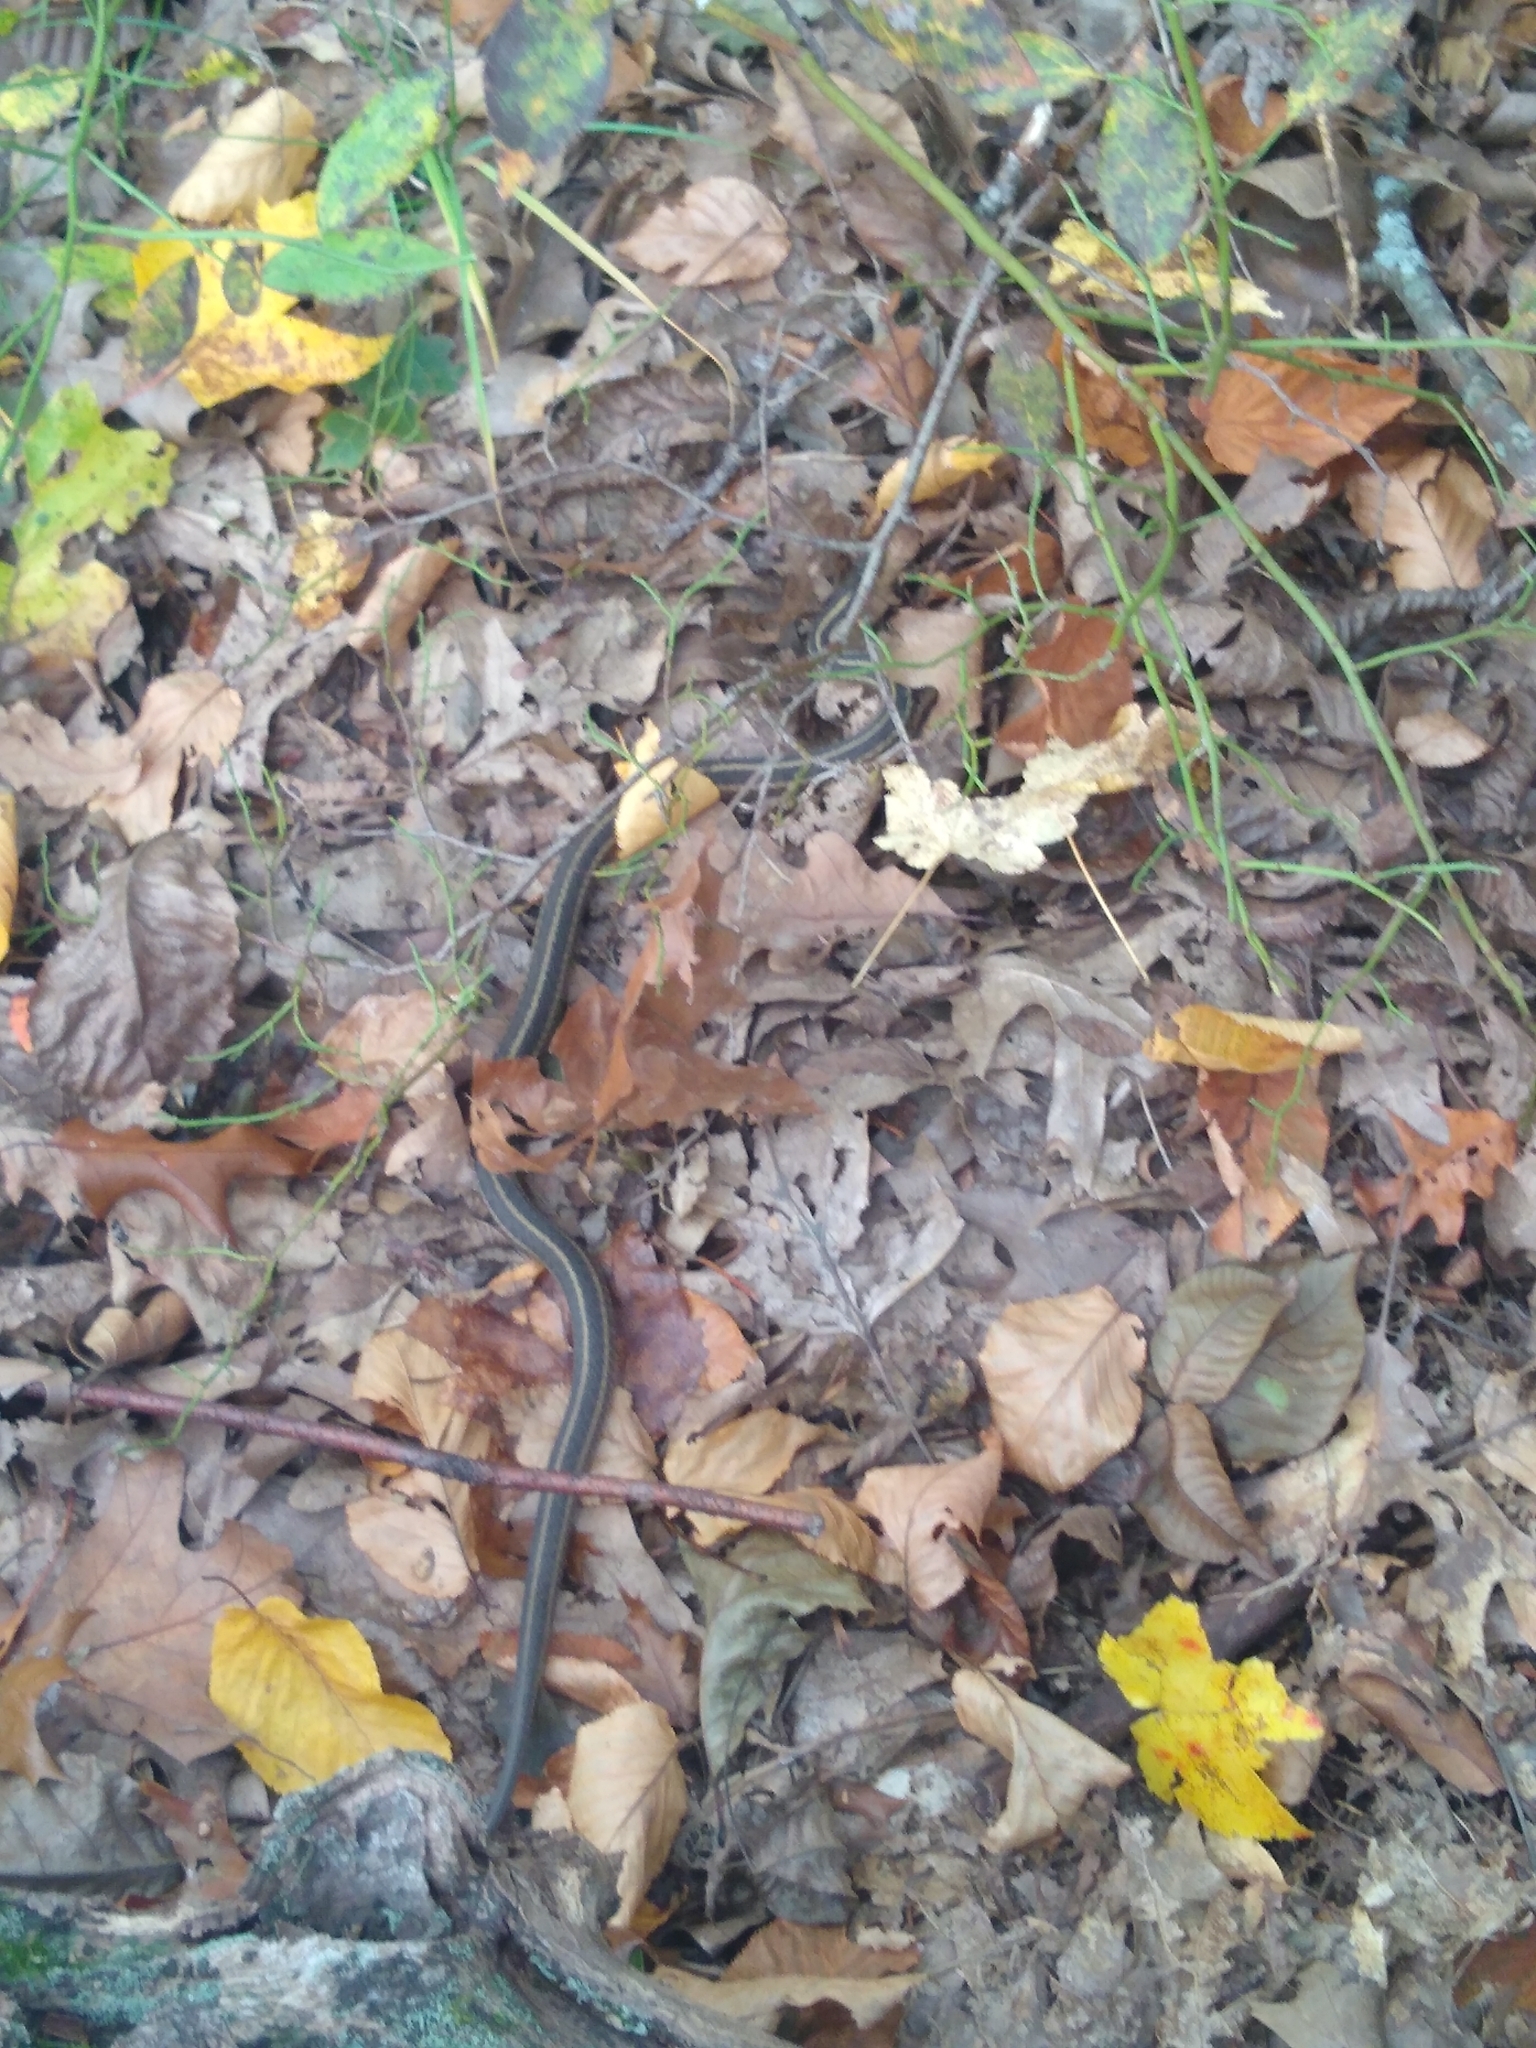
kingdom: Animalia
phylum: Chordata
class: Squamata
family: Colubridae
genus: Thamnophis
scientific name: Thamnophis sirtalis
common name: Common garter snake
